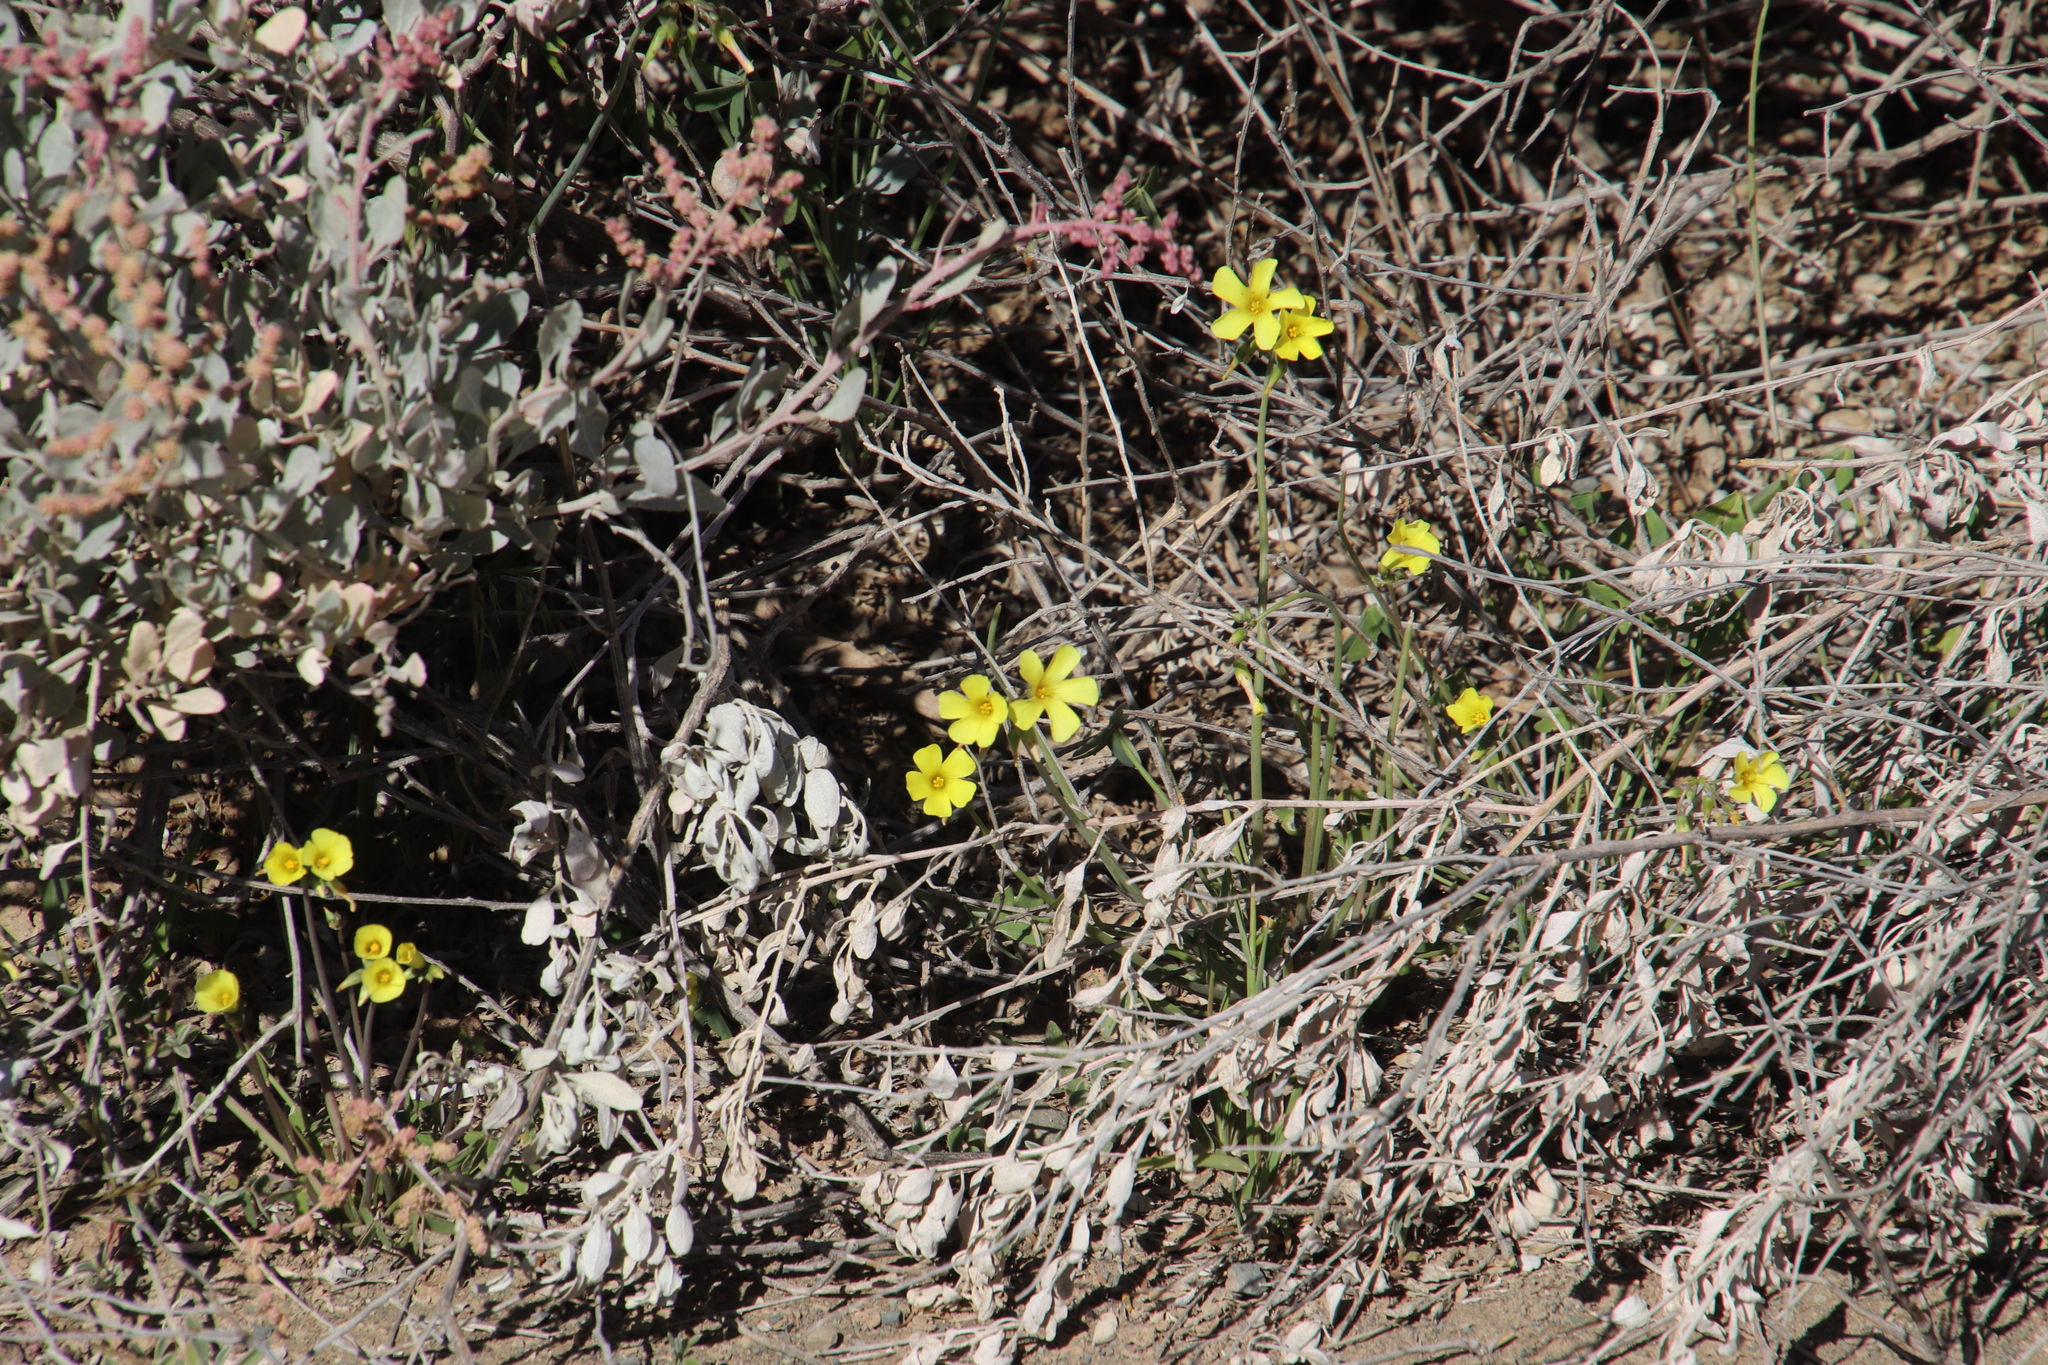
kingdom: Plantae
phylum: Tracheophyta
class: Magnoliopsida
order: Oxalidales
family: Oxalidaceae
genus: Oxalis
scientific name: Oxalis pes-caprae
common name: Bermuda-buttercup
